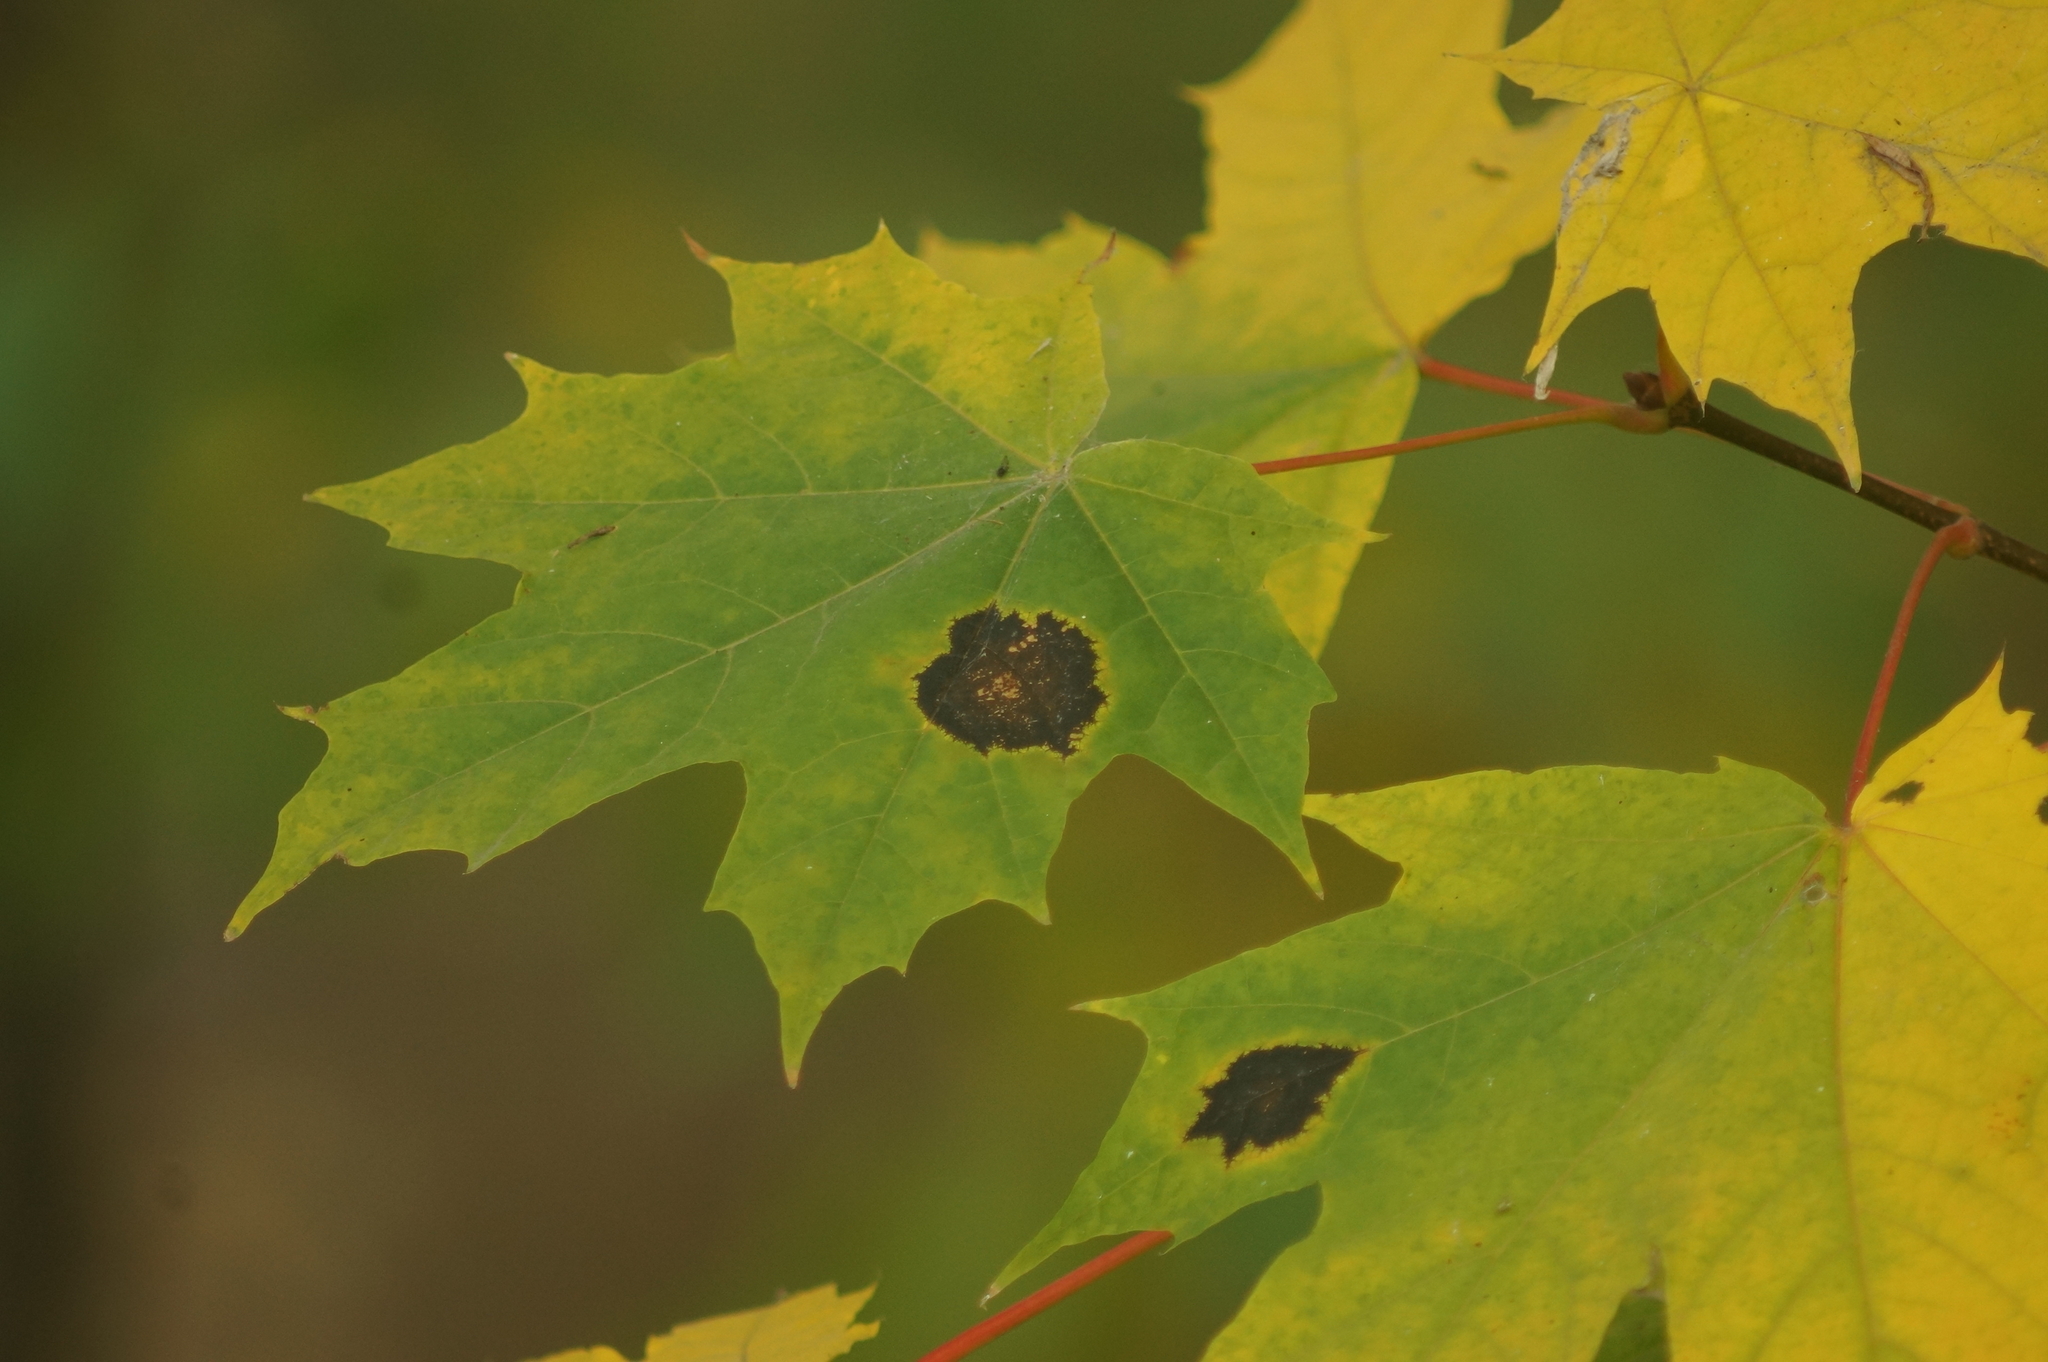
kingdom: Fungi
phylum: Ascomycota
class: Leotiomycetes
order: Rhytismatales
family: Rhytismataceae
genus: Rhytisma
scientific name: Rhytisma acerinum
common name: European tar spot
